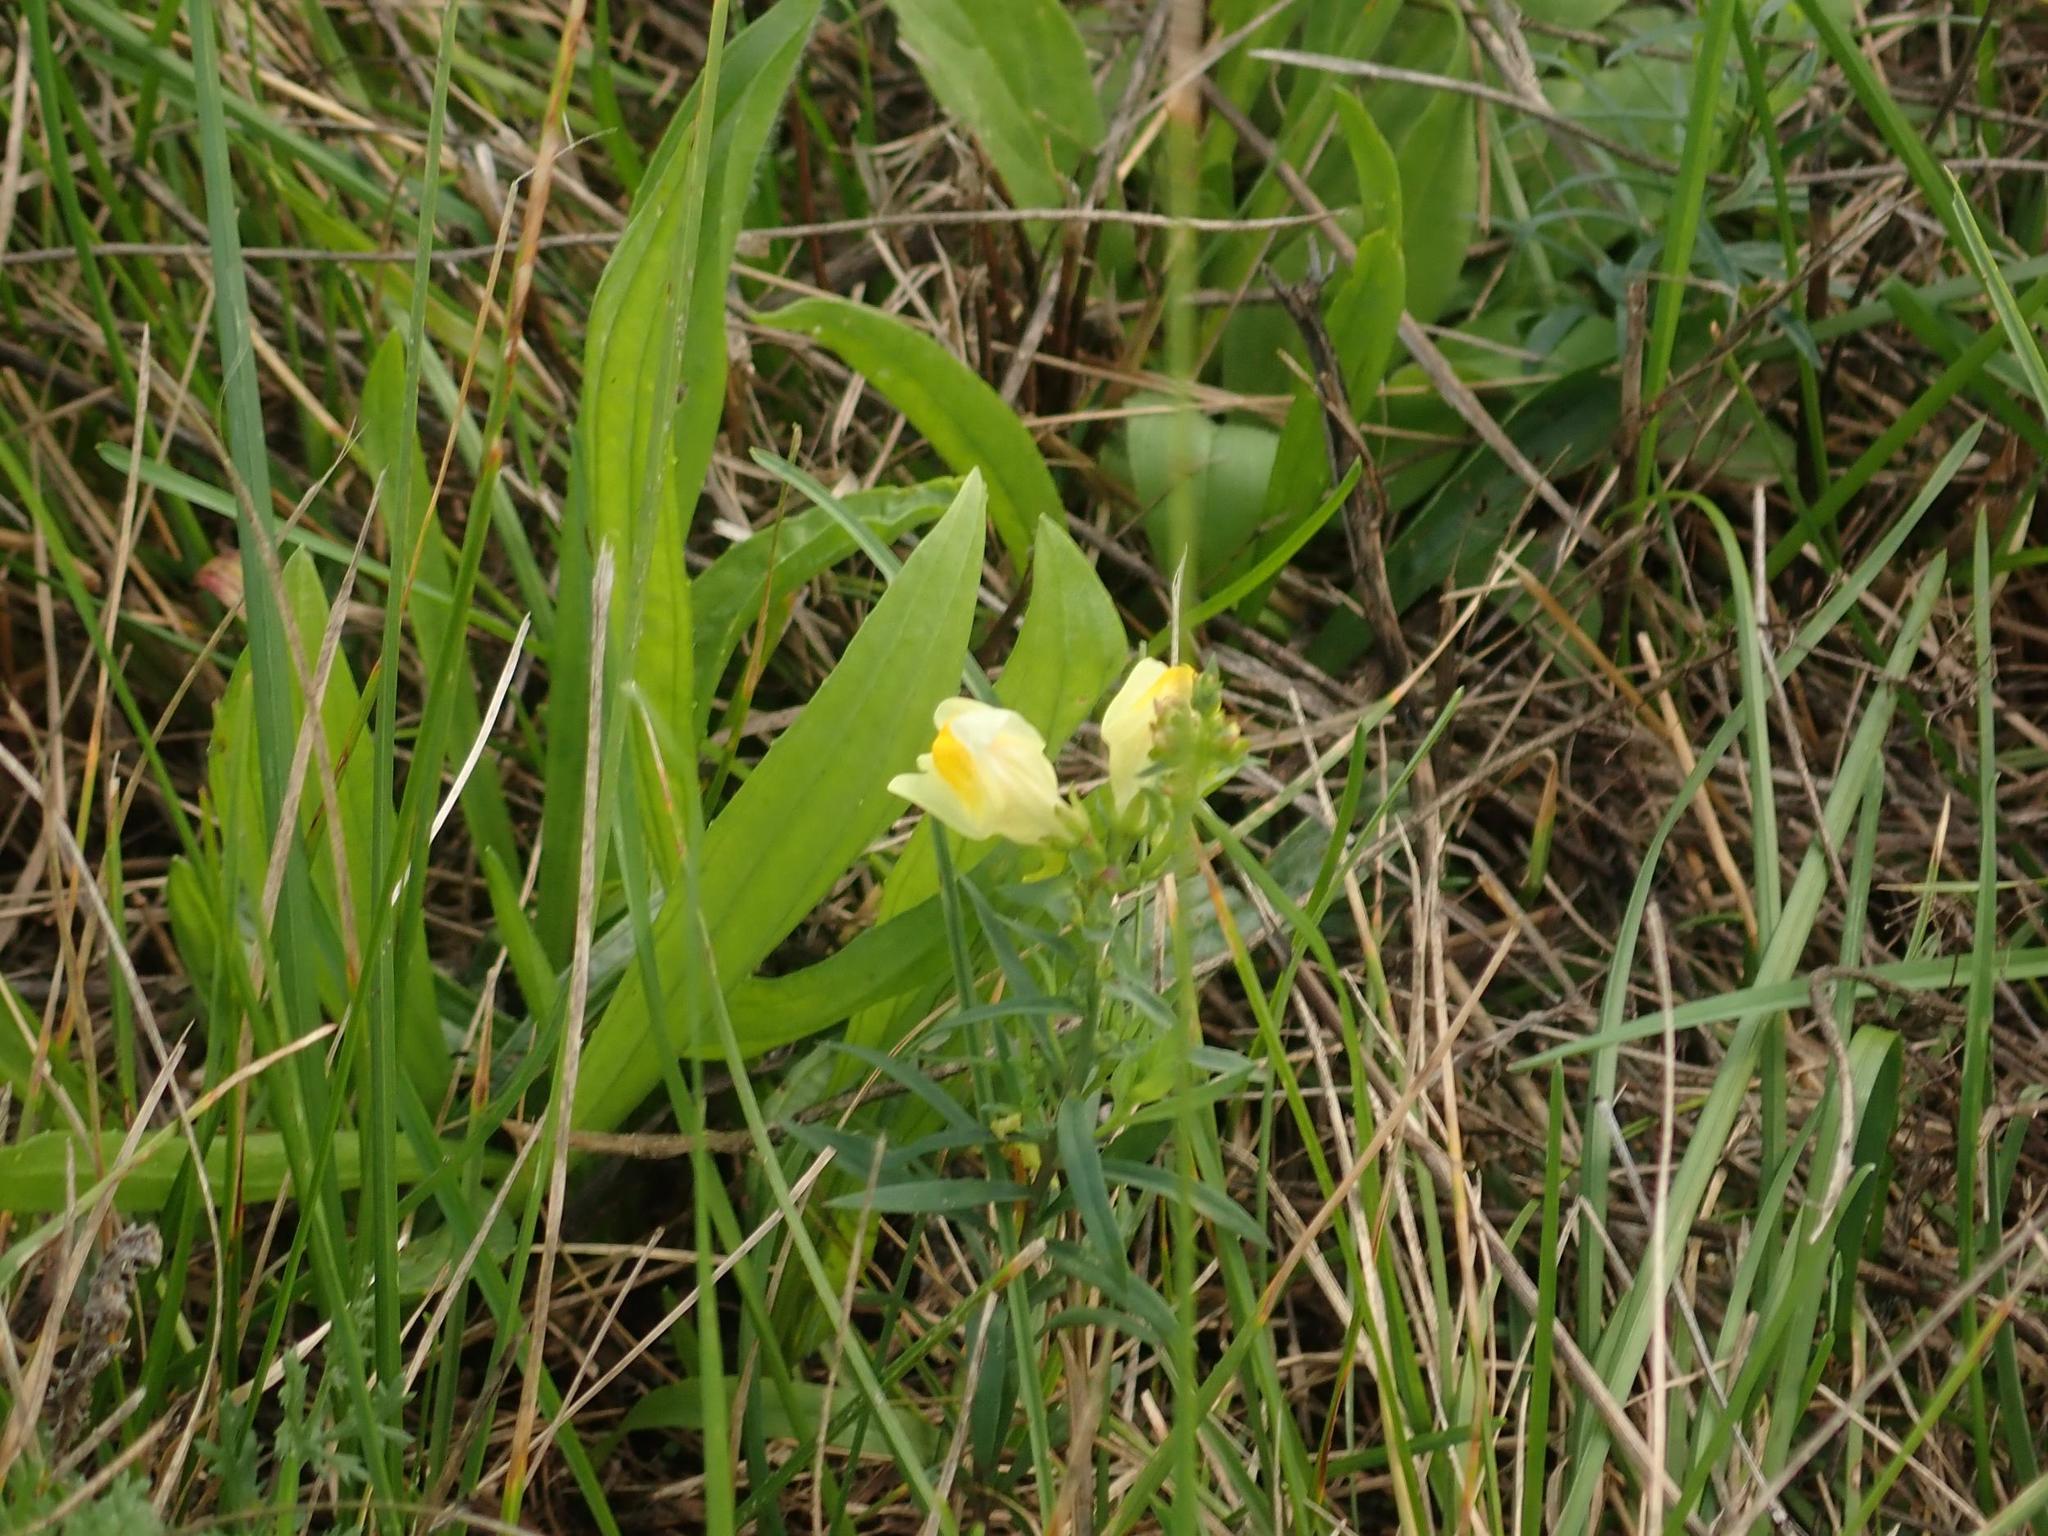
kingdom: Plantae
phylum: Tracheophyta
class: Magnoliopsida
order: Lamiales
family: Plantaginaceae
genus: Linaria
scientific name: Linaria vulgaris
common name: Butter and eggs
